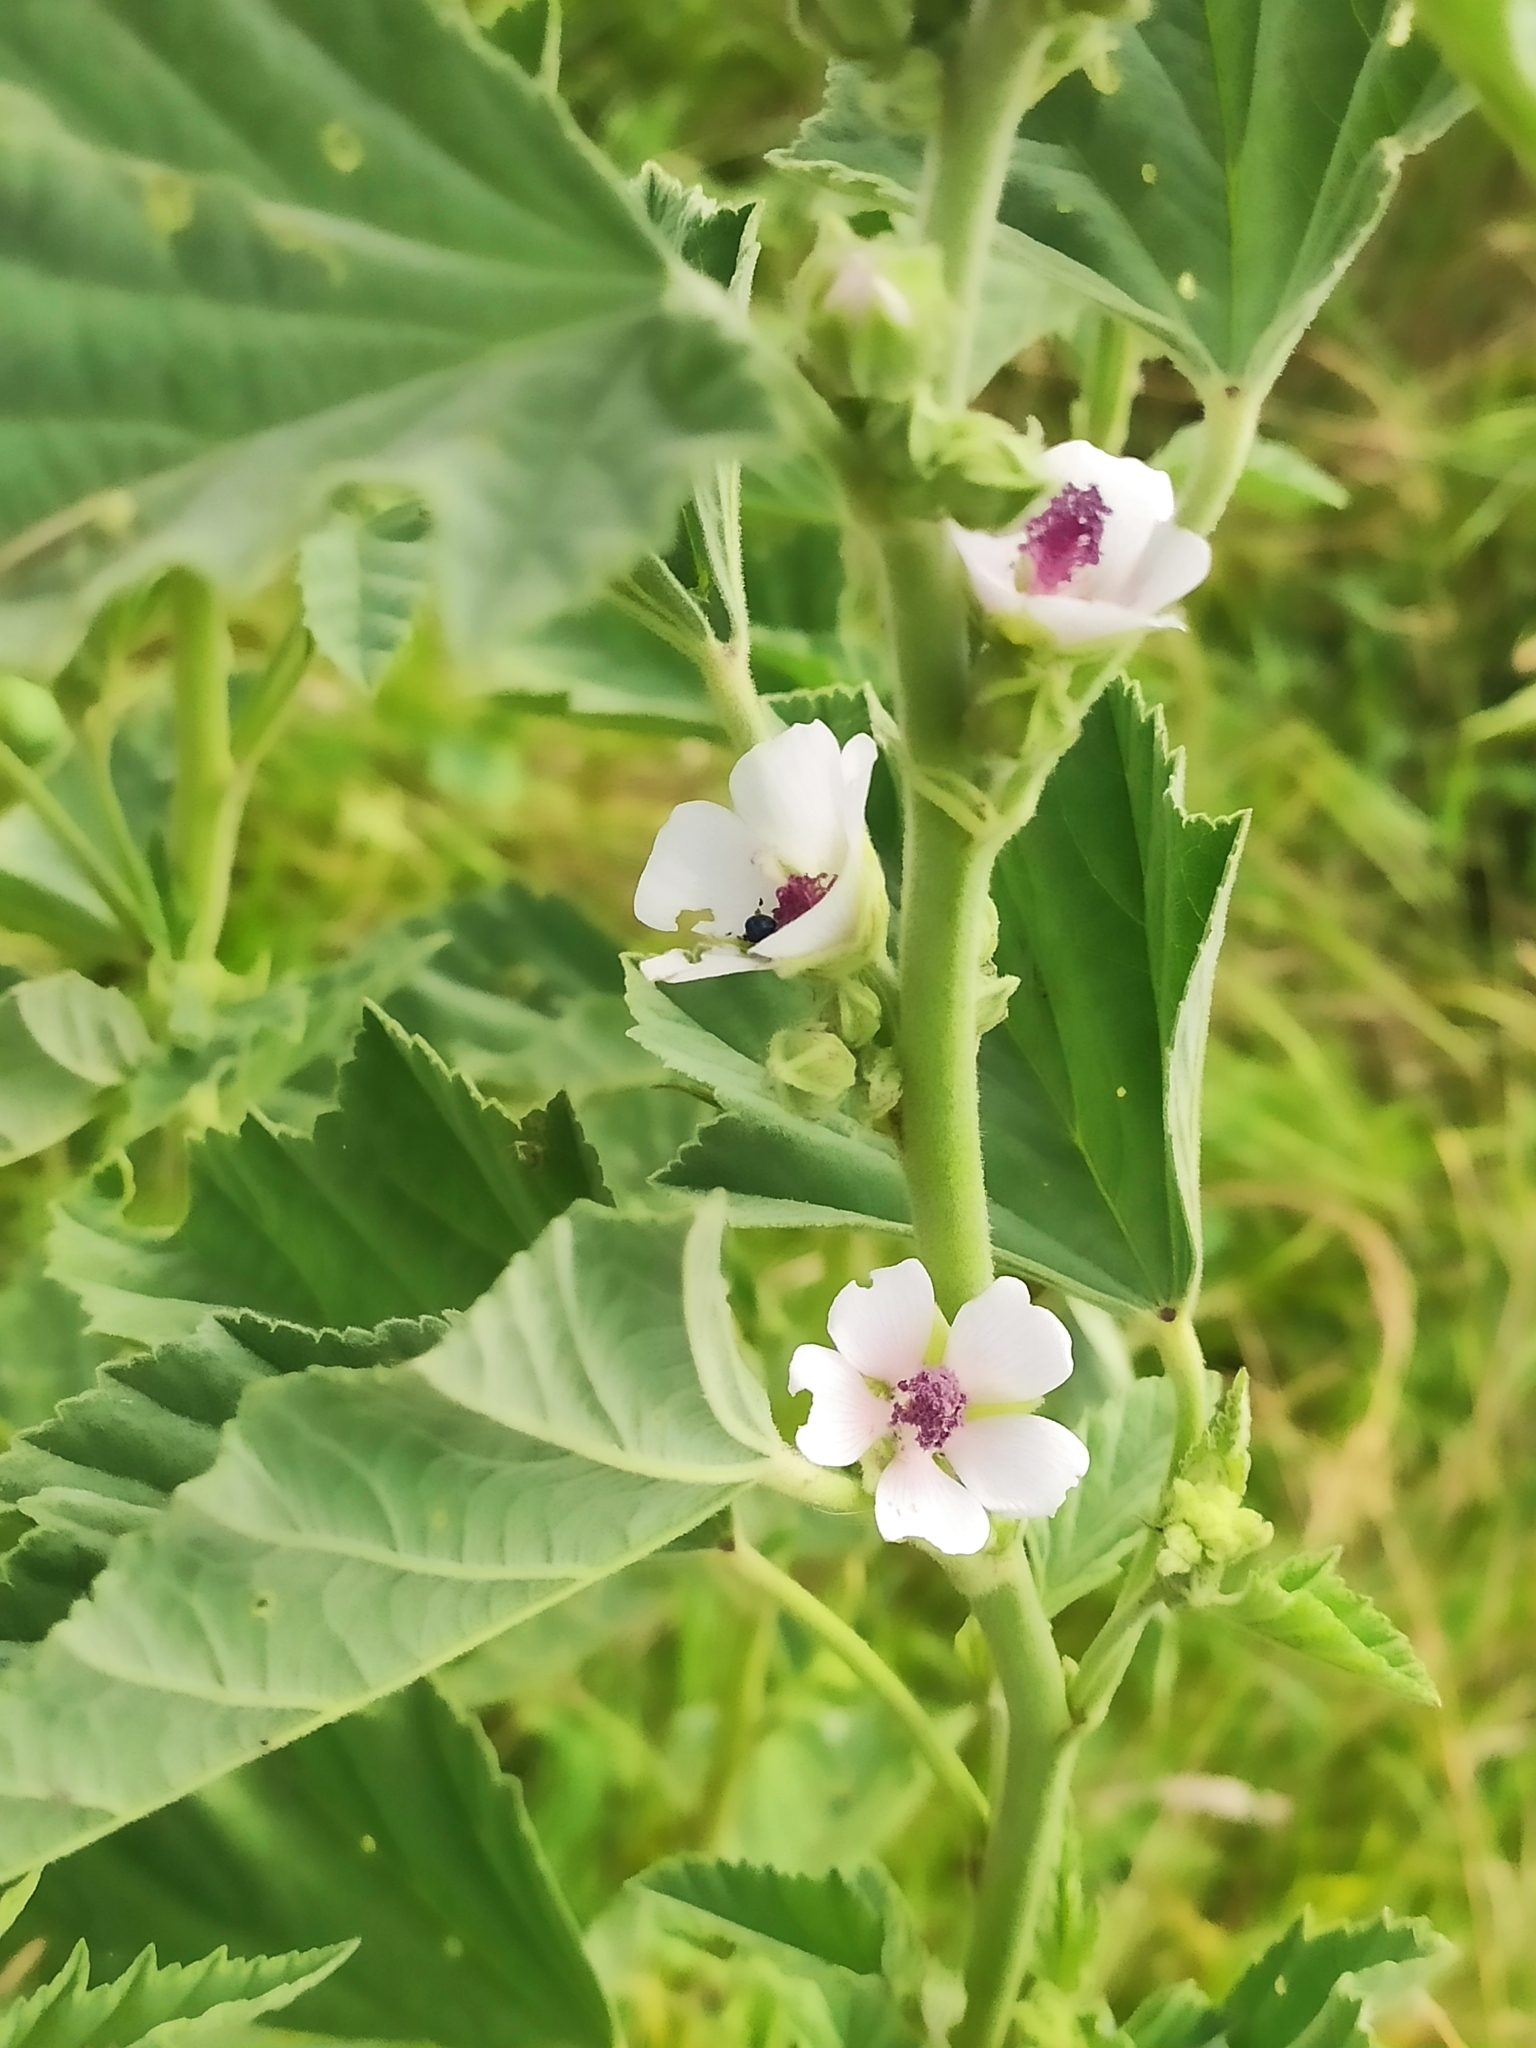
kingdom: Plantae
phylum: Tracheophyta
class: Magnoliopsida
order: Malvales
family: Malvaceae
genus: Althaea
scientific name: Althaea officinalis
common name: Marsh-mallow
